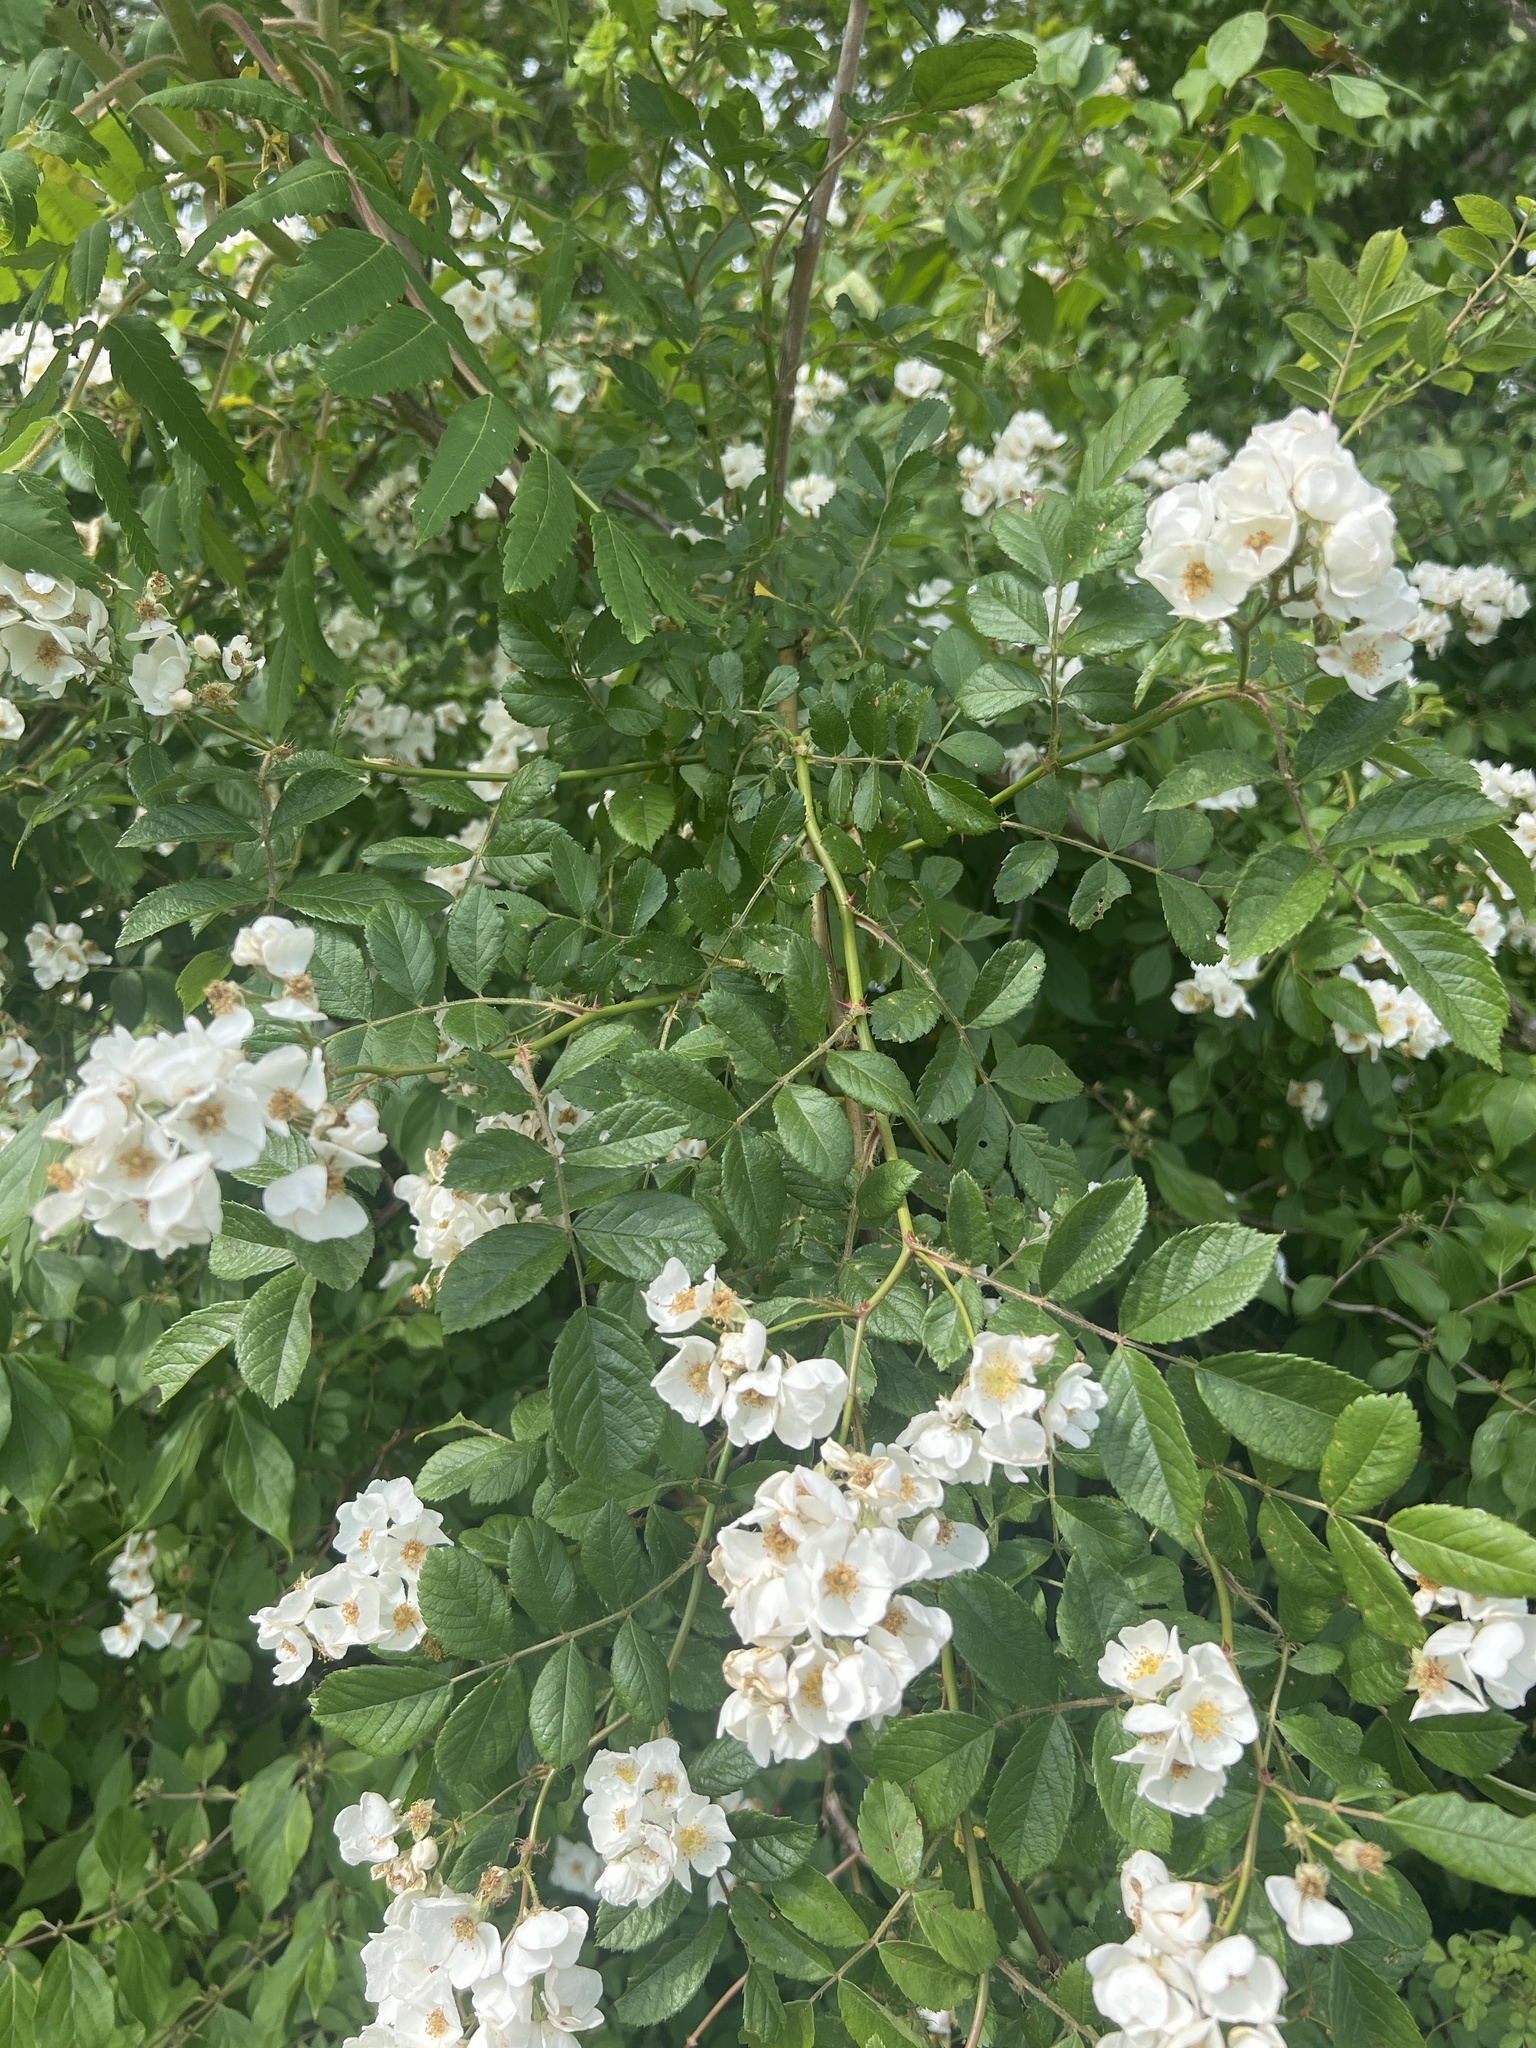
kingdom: Plantae
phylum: Tracheophyta
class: Magnoliopsida
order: Rosales
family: Rosaceae
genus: Rosa
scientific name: Rosa multiflora
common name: Multiflora rose
